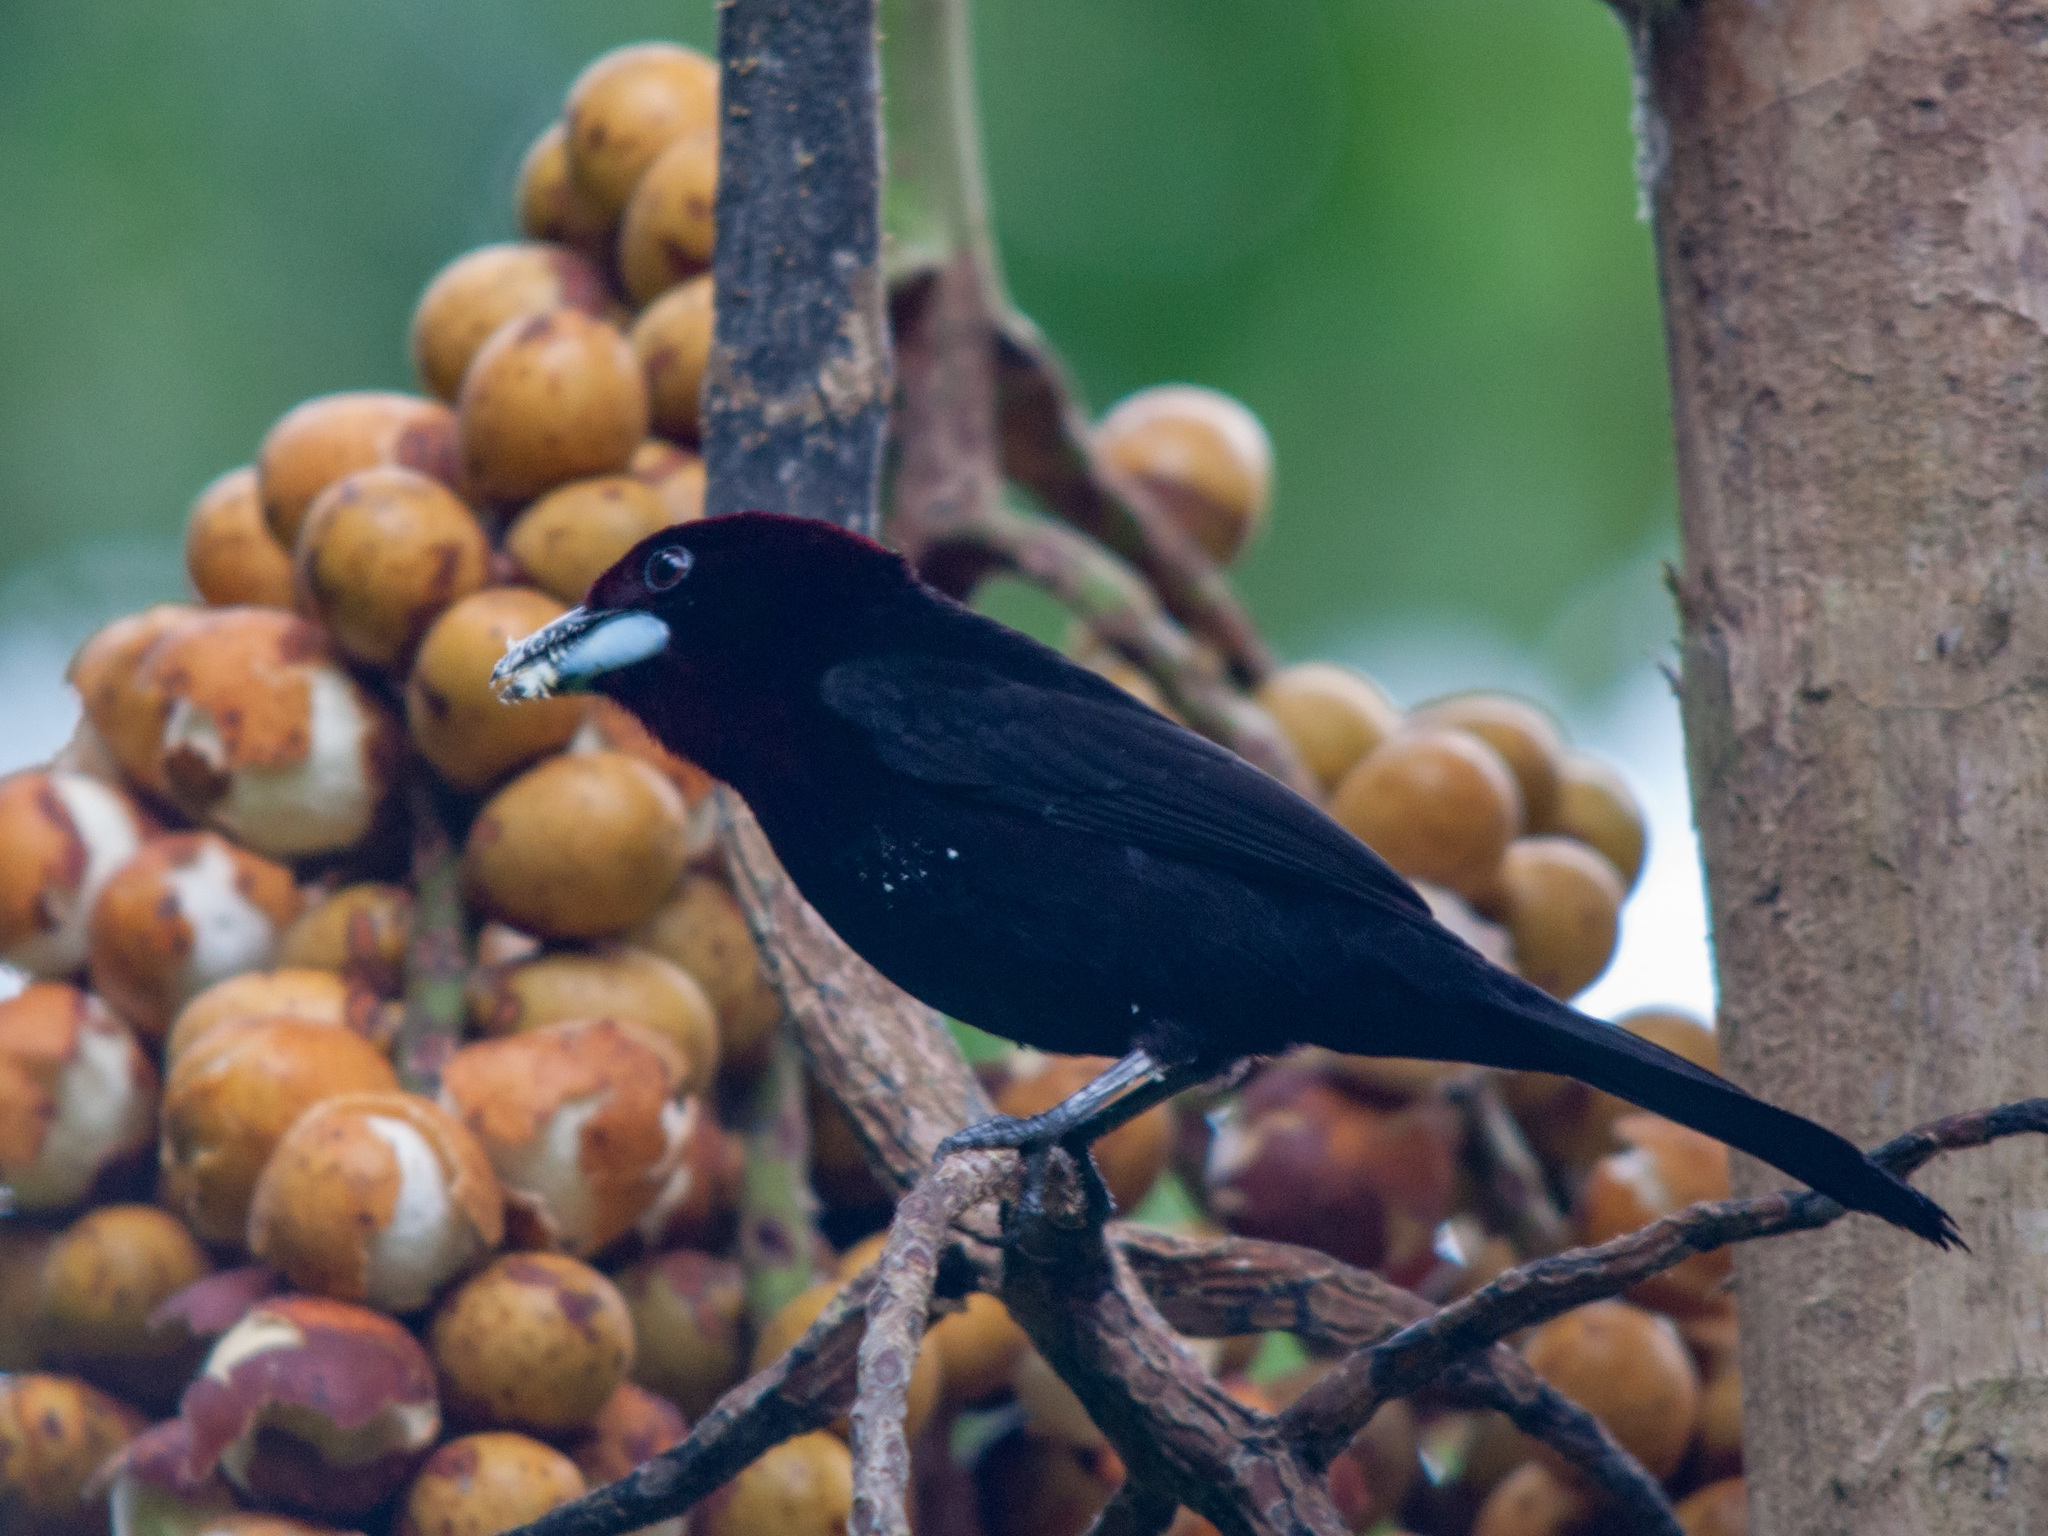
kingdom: Animalia
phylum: Chordata
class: Aves
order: Passeriformes
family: Thraupidae
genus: Ramphocelus
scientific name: Ramphocelus carbo
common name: Silver-beaked tanager
